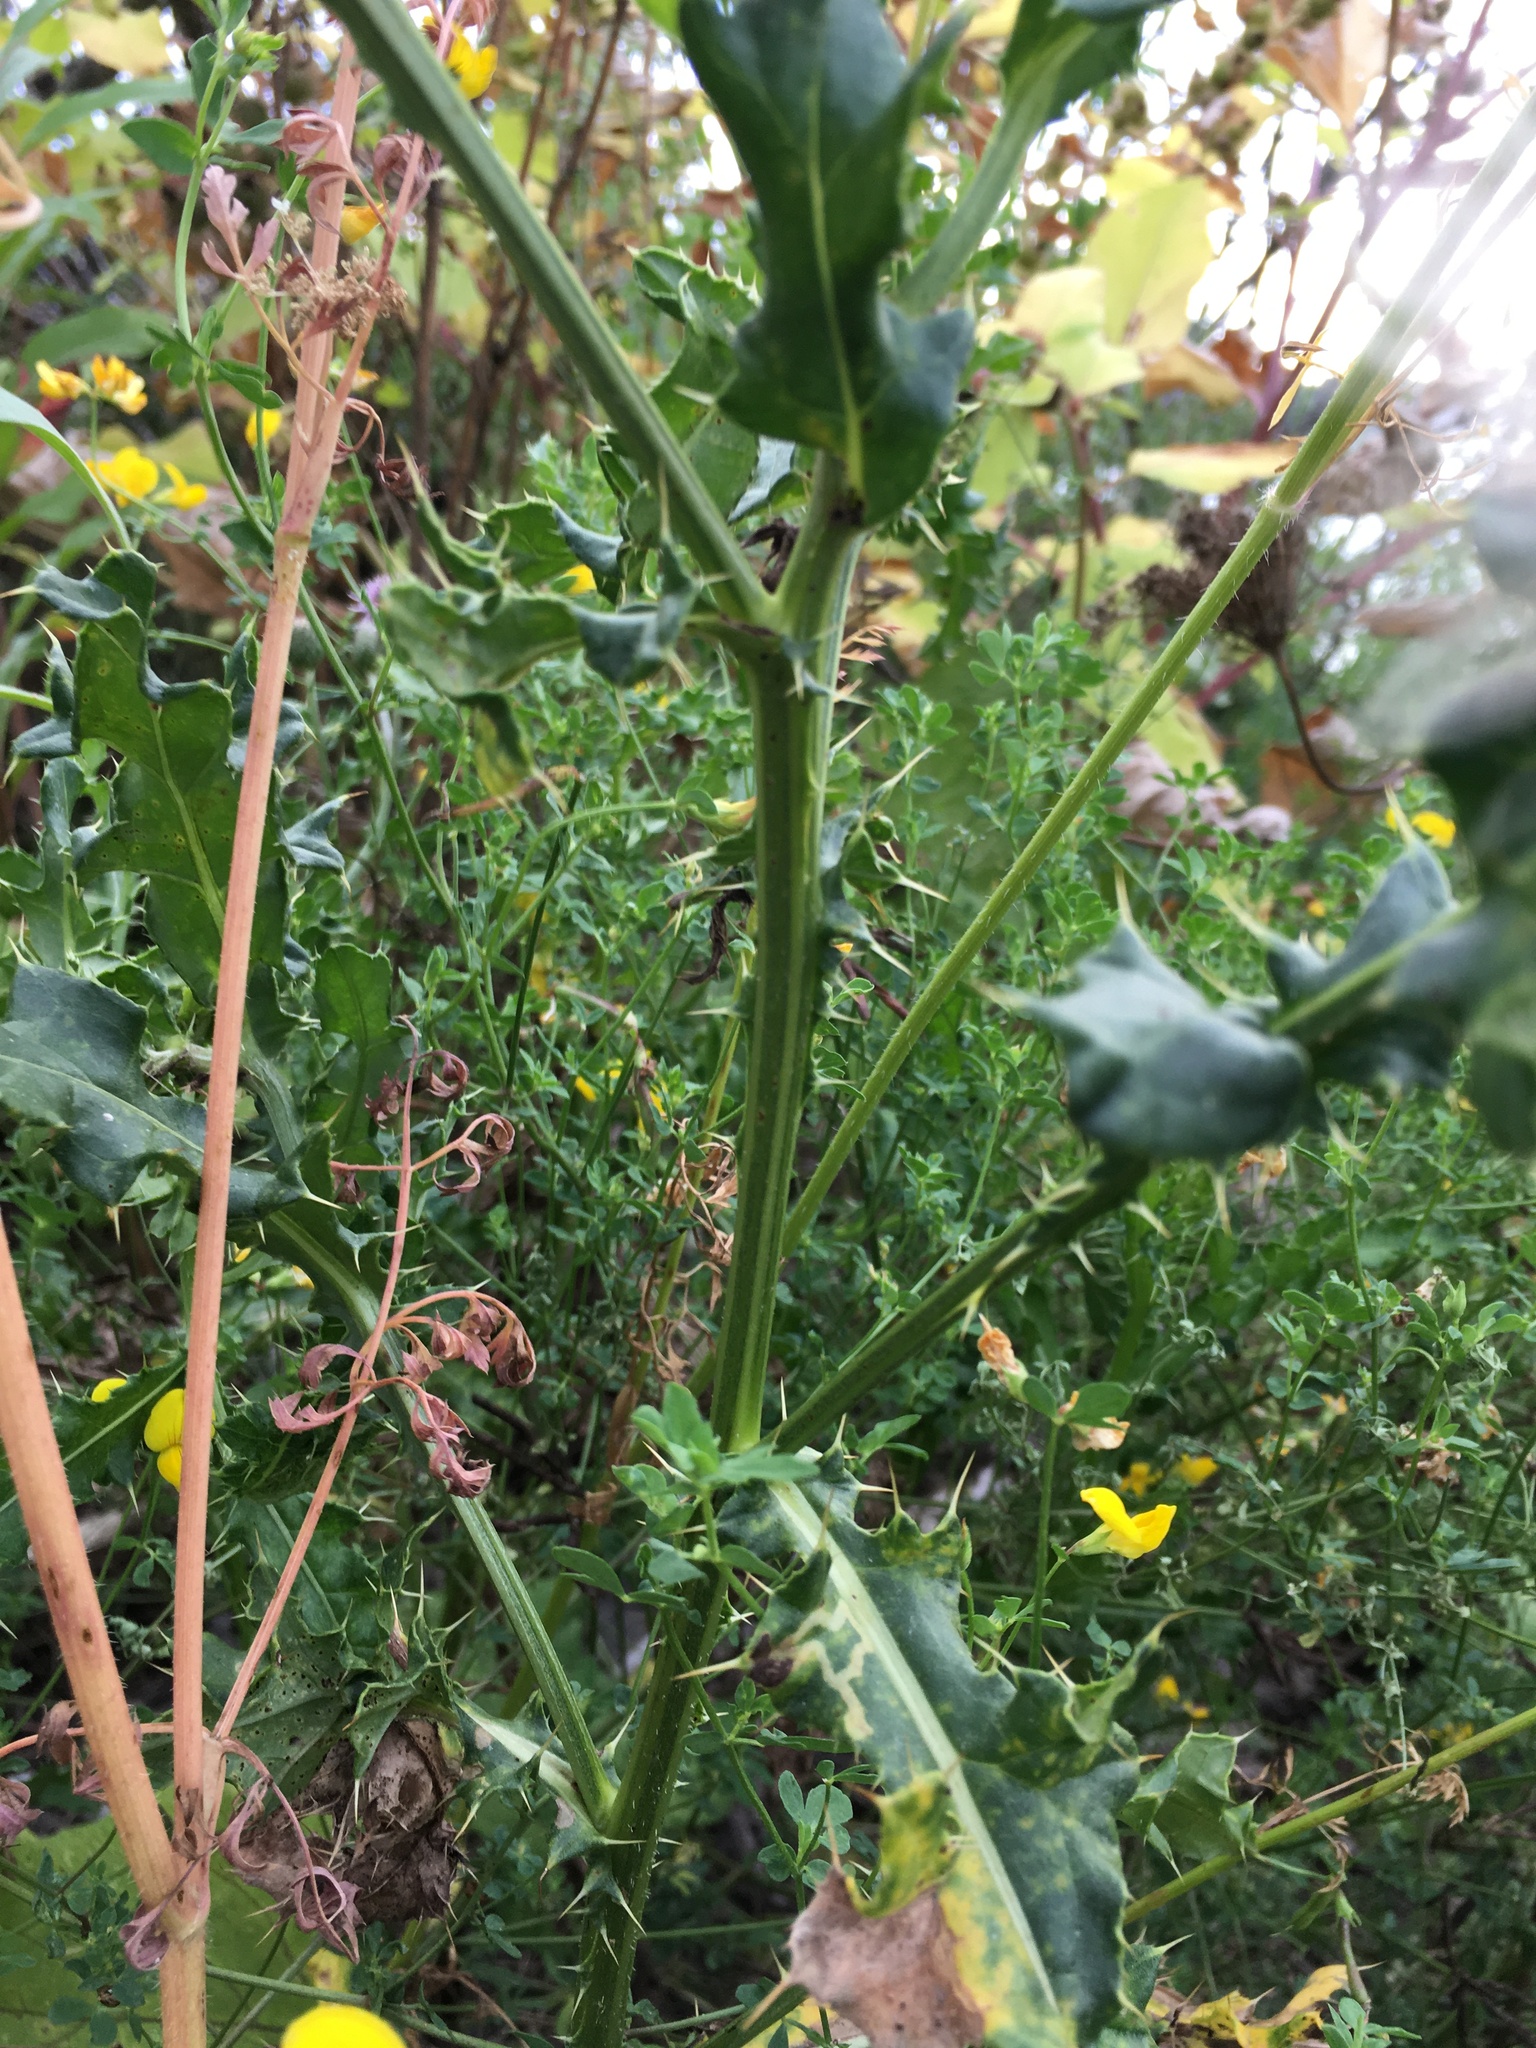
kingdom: Plantae
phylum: Tracheophyta
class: Magnoliopsida
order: Asterales
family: Asteraceae
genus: Cirsium
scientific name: Cirsium arvense
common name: Creeping thistle
